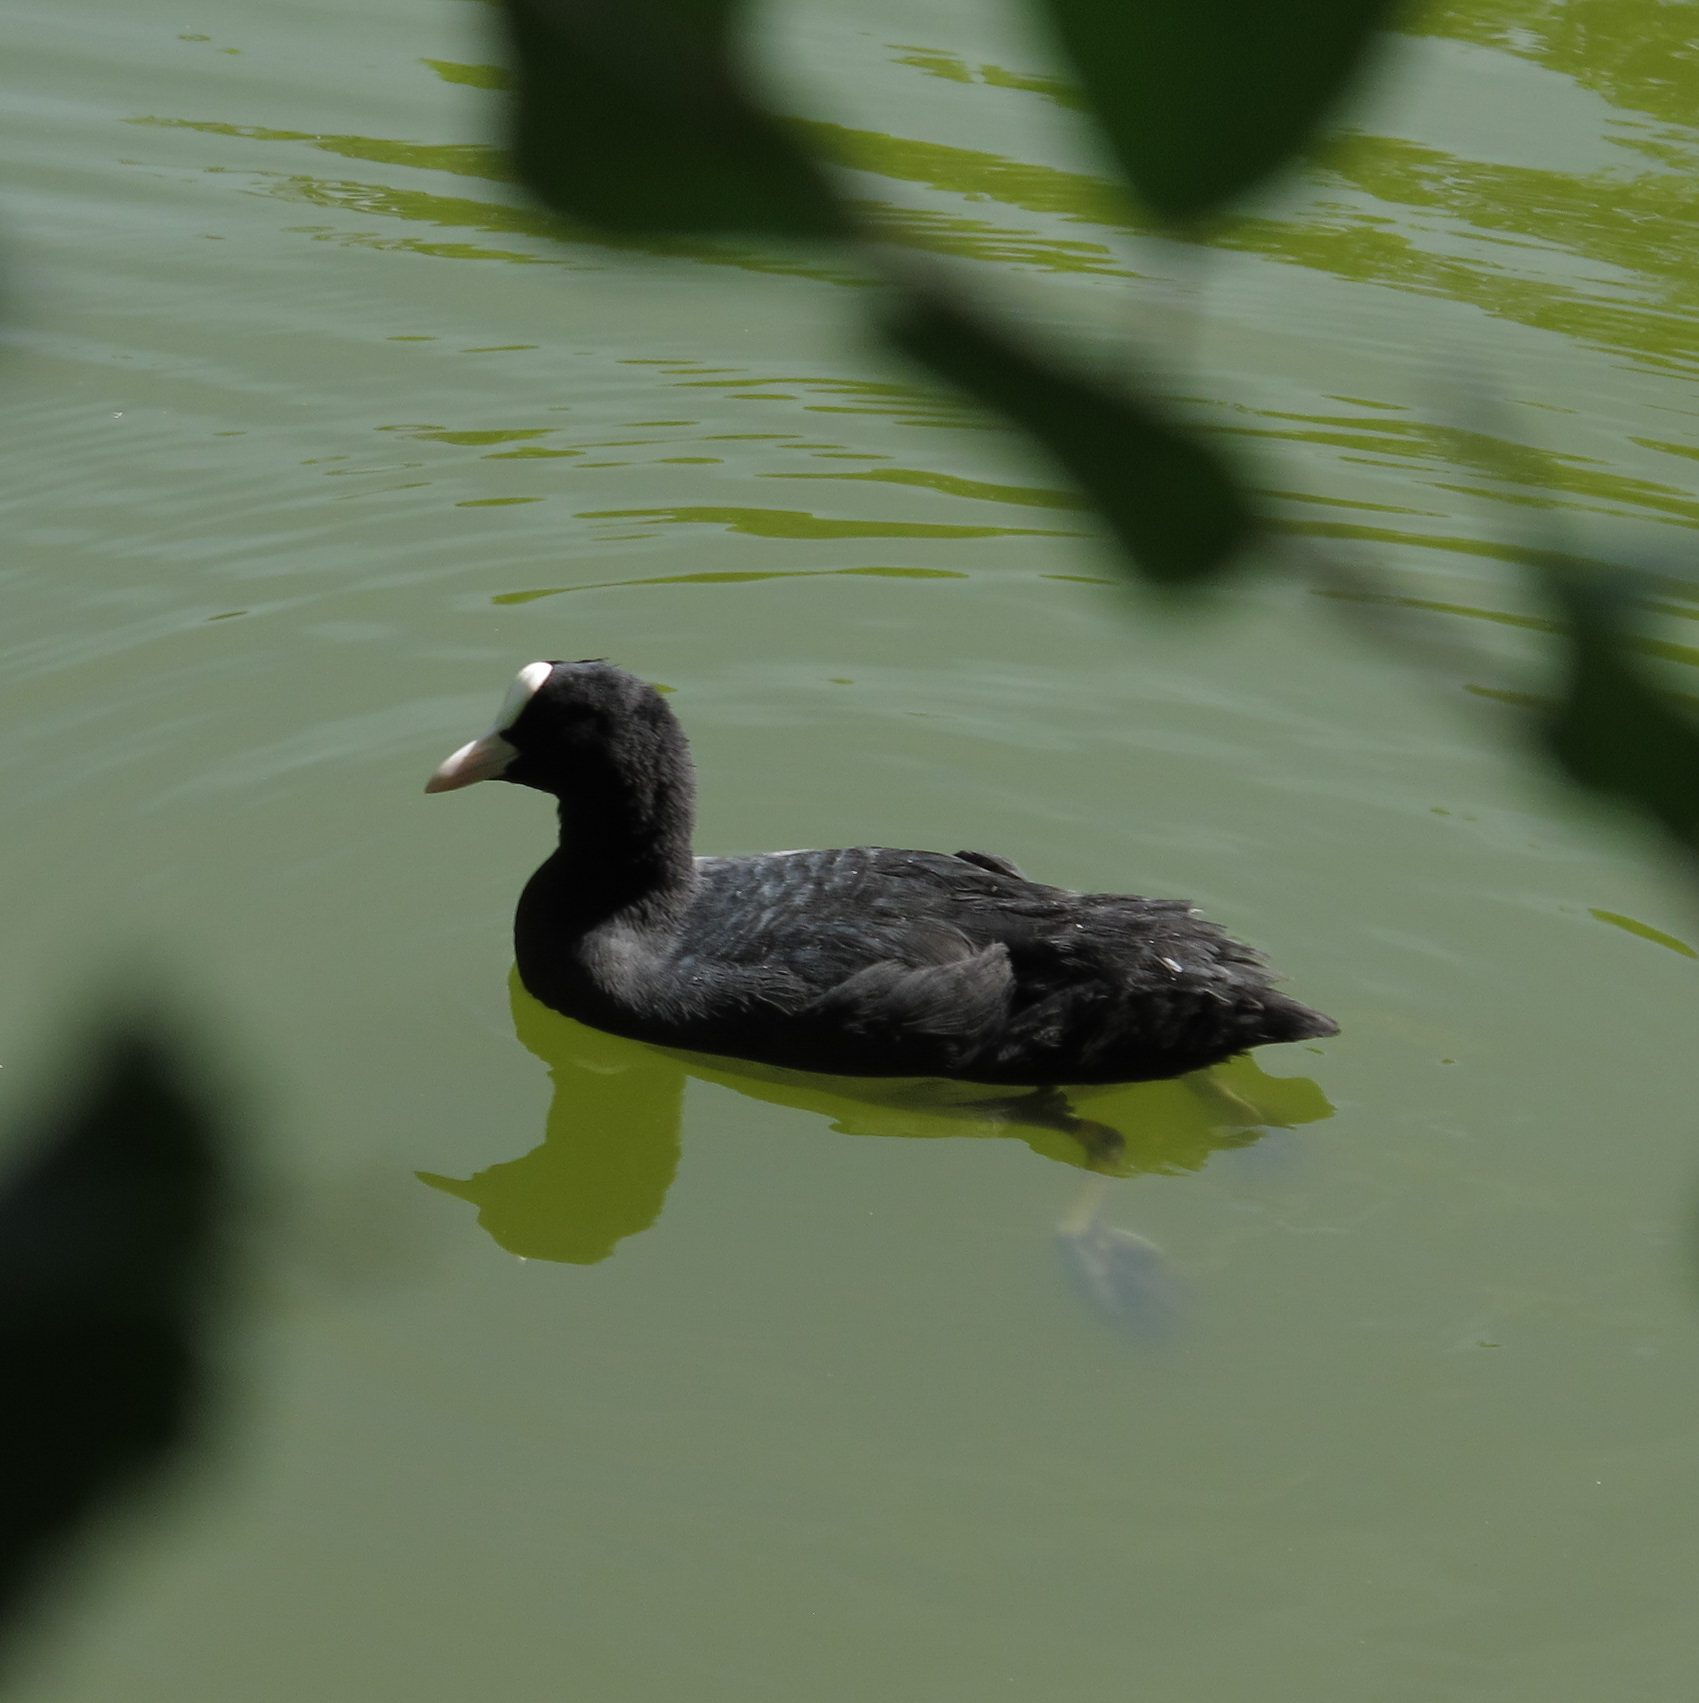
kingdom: Animalia
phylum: Chordata
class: Aves
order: Gruiformes
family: Rallidae
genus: Fulica
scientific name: Fulica atra
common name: Eurasian coot
